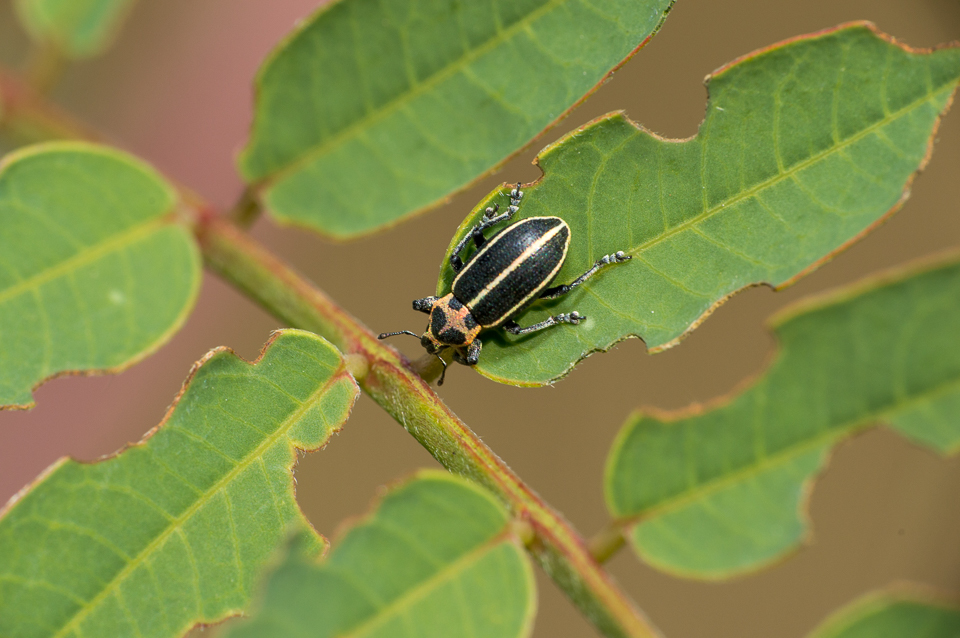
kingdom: Animalia
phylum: Arthropoda
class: Insecta
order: Coleoptera
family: Curculionidae
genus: Eudiagogus
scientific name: Eudiagogus episcopalis
